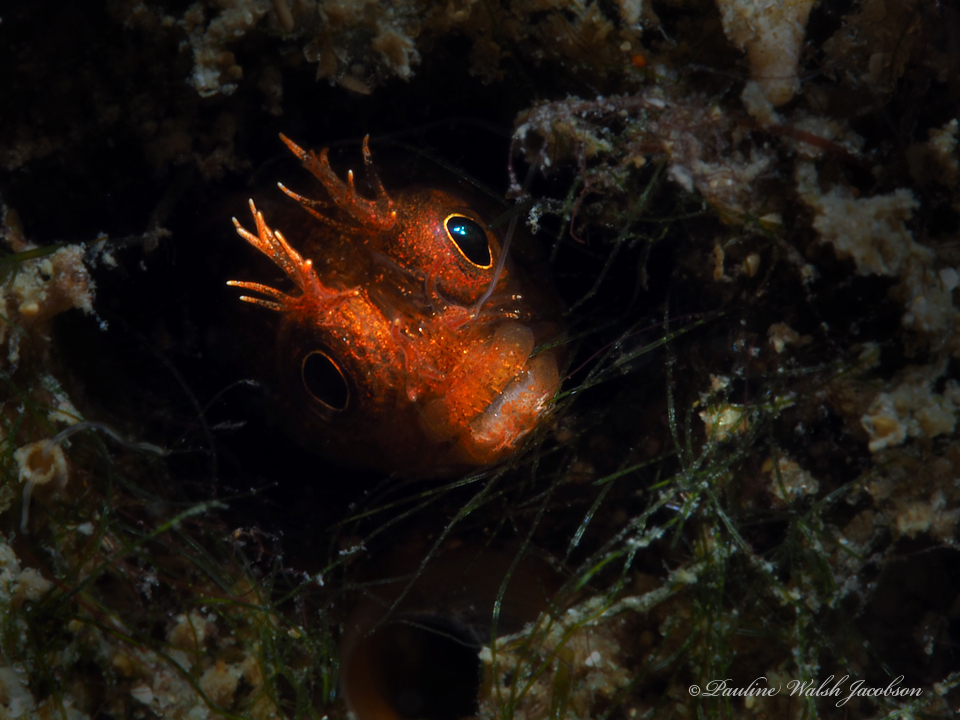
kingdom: Animalia
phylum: Chordata
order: Perciformes
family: Chaenopsidae
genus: Acanthemblemaria
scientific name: Acanthemblemaria aspera
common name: Roughhead blenny
